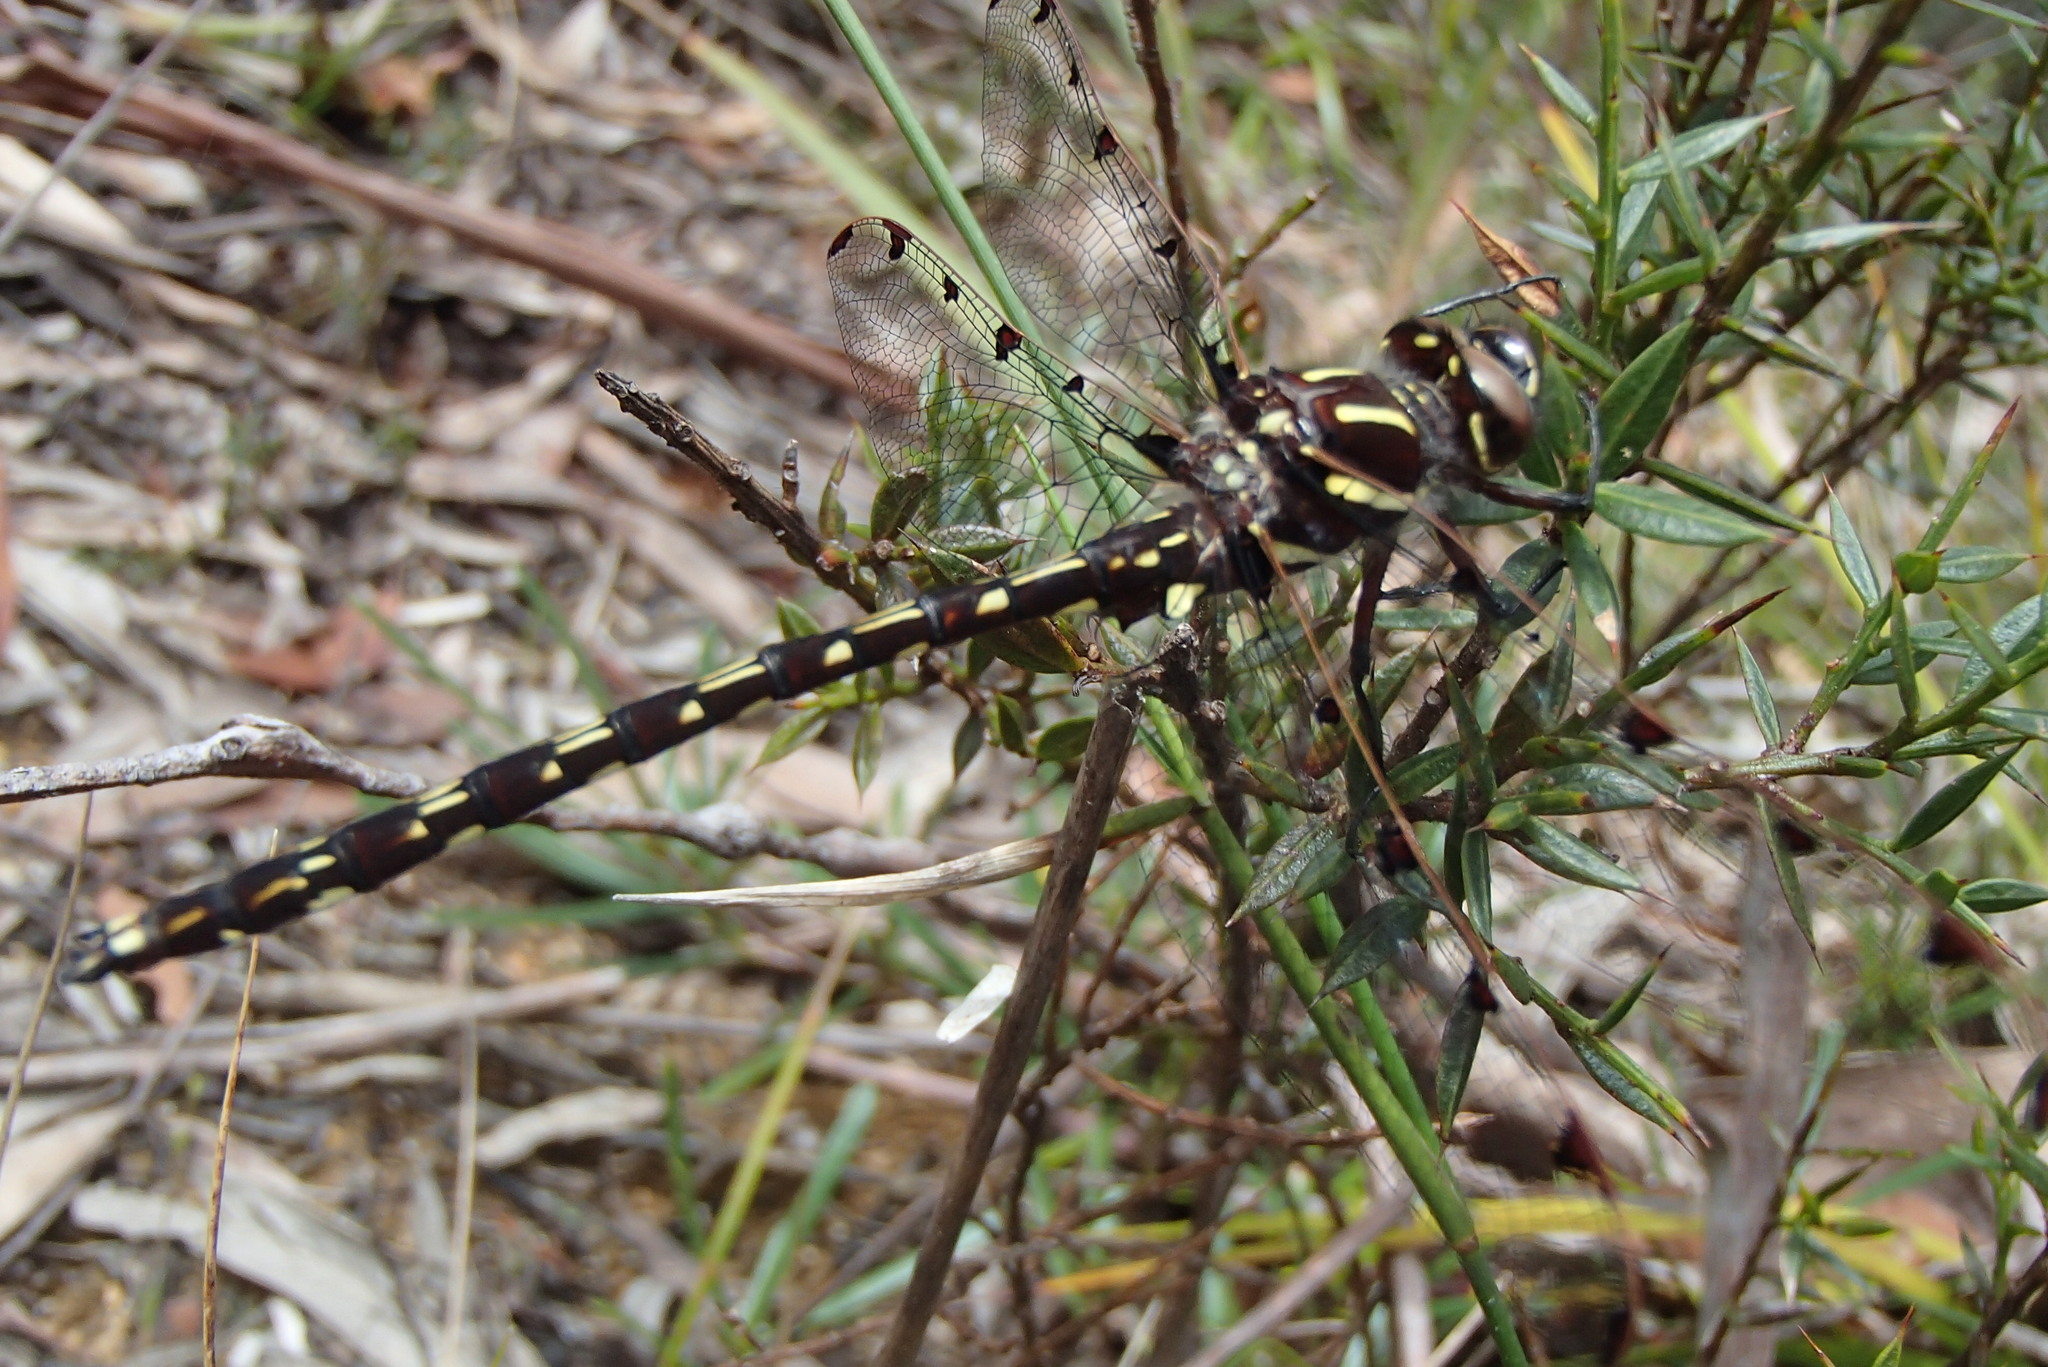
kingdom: Animalia
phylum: Arthropoda
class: Insecta
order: Odonata
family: Austropetaliidae
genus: Austropetalia
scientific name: Austropetalia patricia
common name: Waterfall redspot
